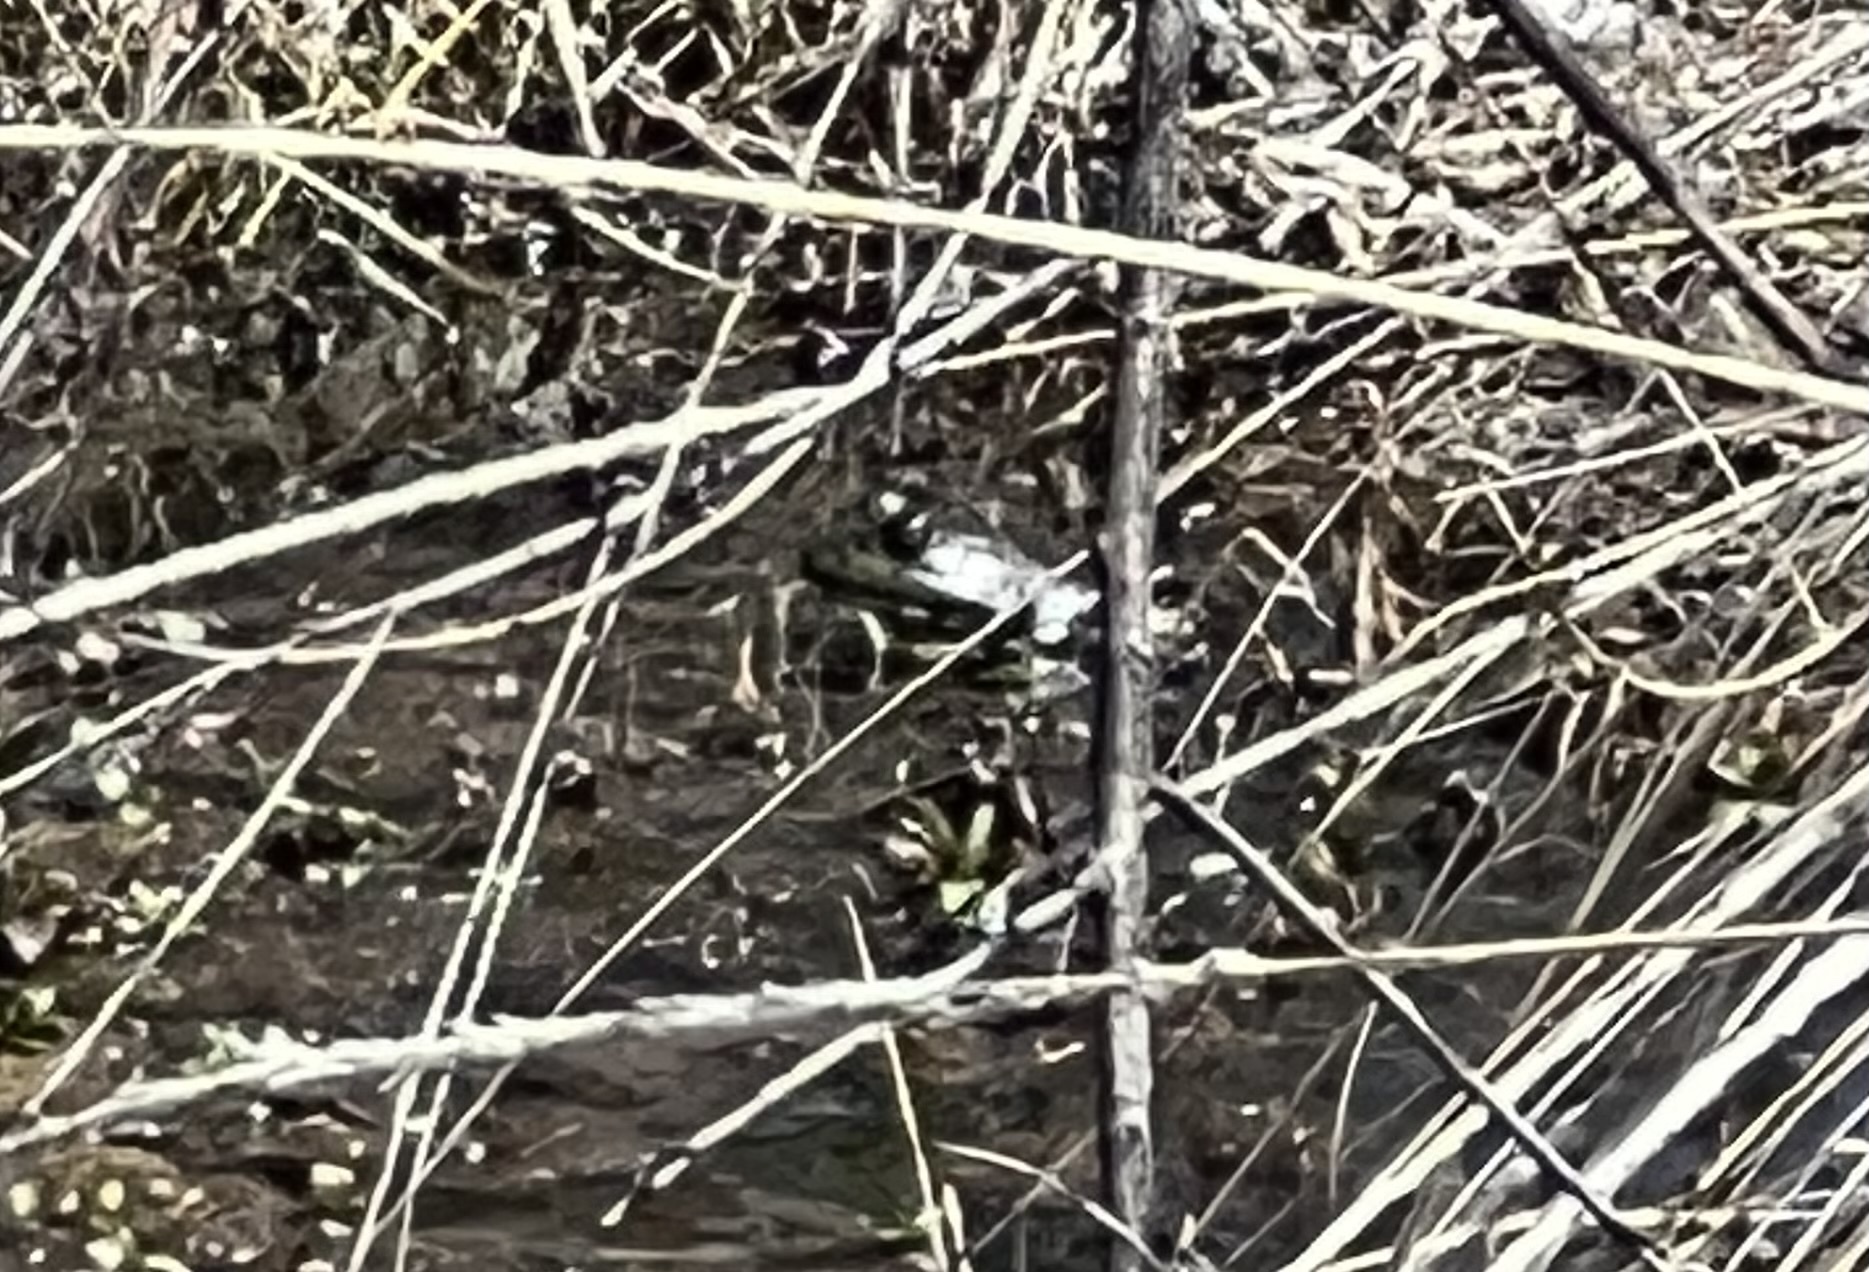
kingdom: Animalia
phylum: Chordata
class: Amphibia
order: Anura
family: Ranidae
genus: Lithobates
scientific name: Lithobates catesbeianus
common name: American bullfrog
